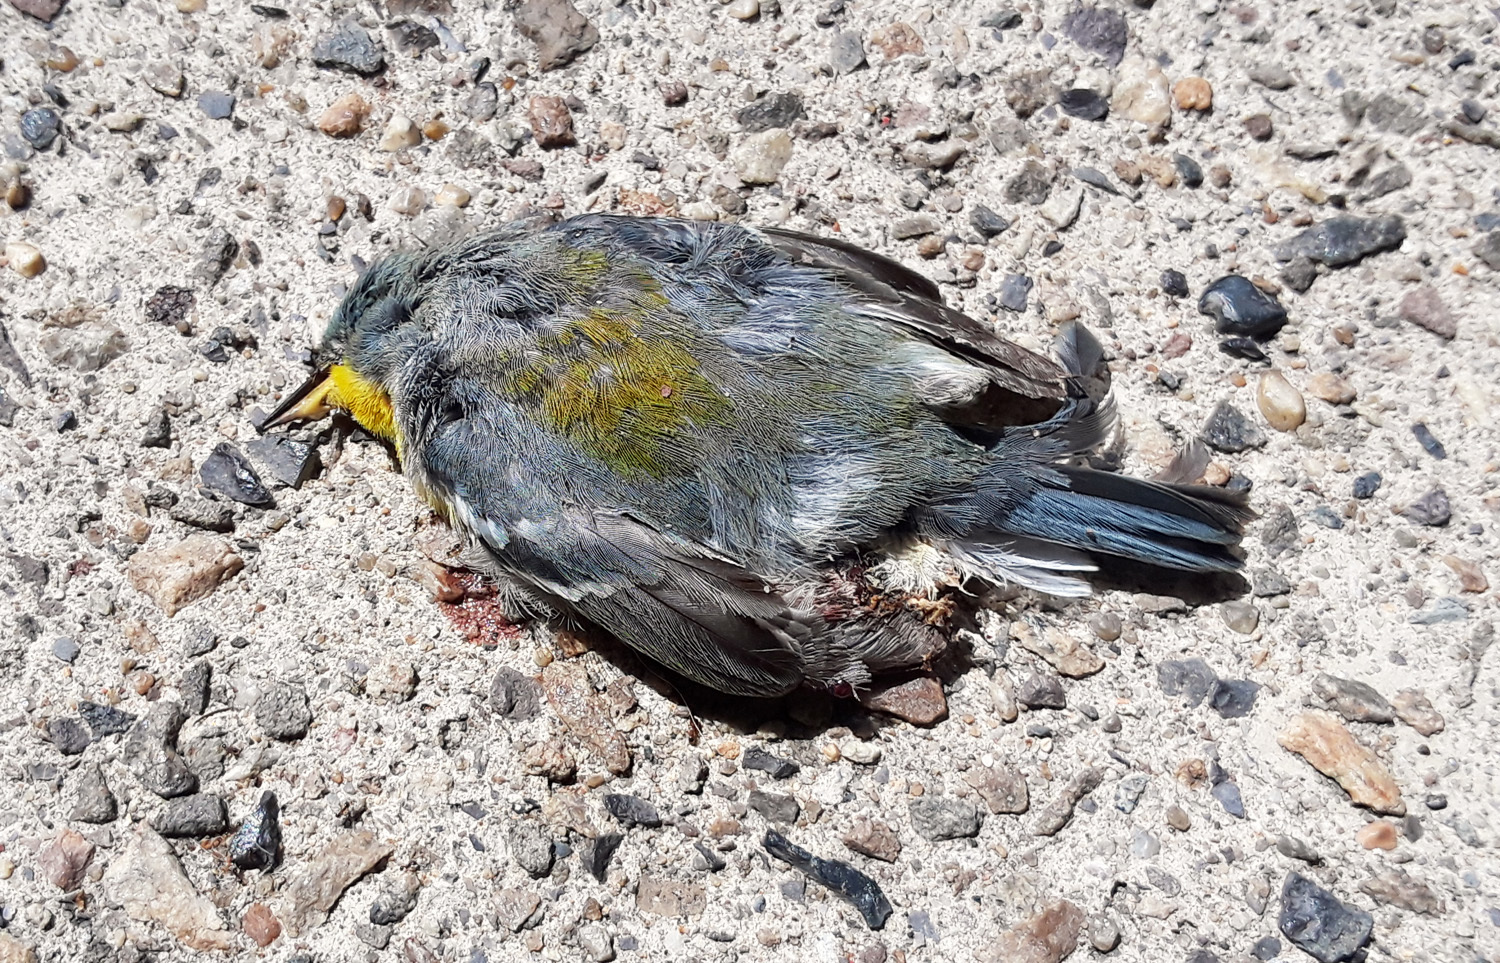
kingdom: Animalia
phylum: Chordata
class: Aves
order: Passeriformes
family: Parulidae
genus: Setophaga
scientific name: Setophaga americana
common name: Northern parula
